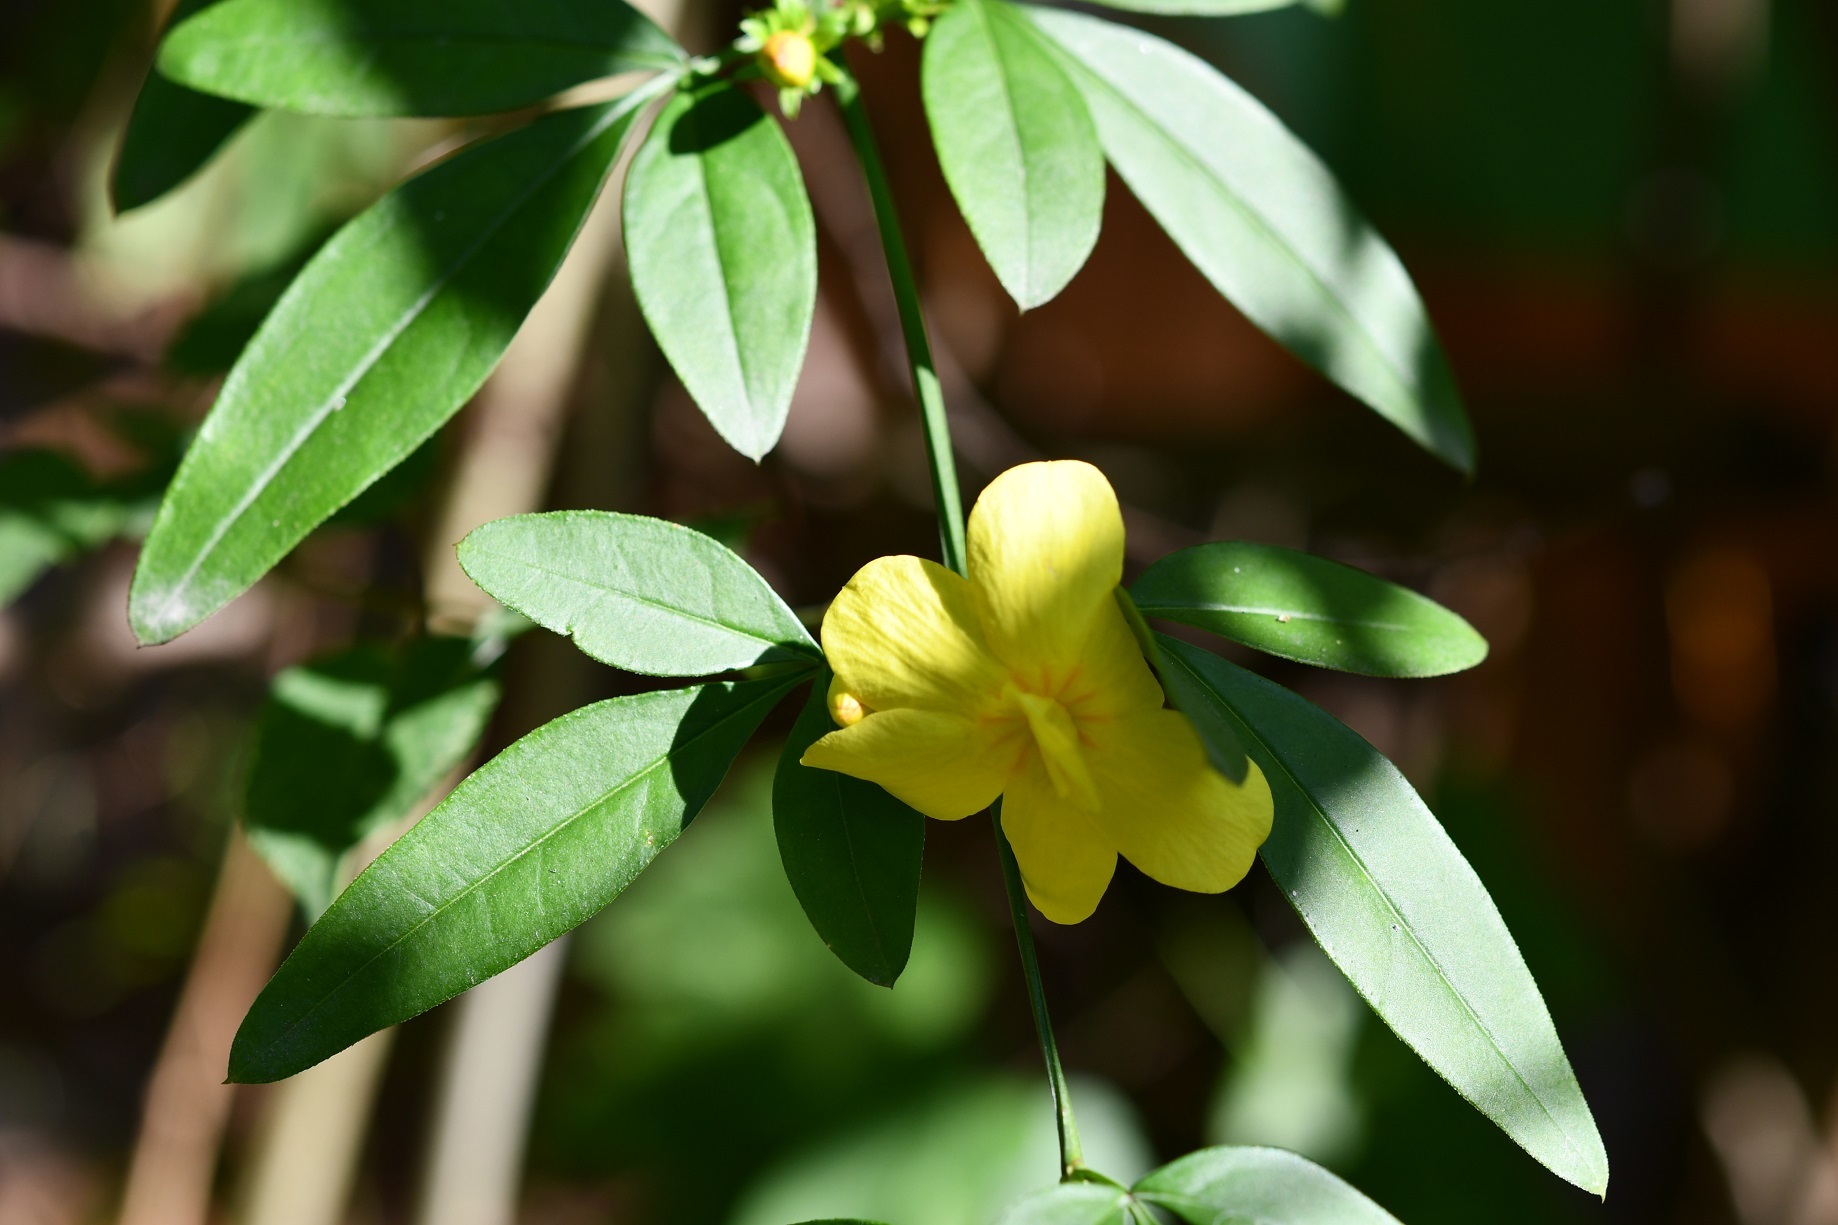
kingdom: Plantae
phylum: Tracheophyta
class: Magnoliopsida
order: Lamiales
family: Oleaceae
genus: Jasminum
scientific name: Jasminum mesnyi
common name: Japanese jasmine
